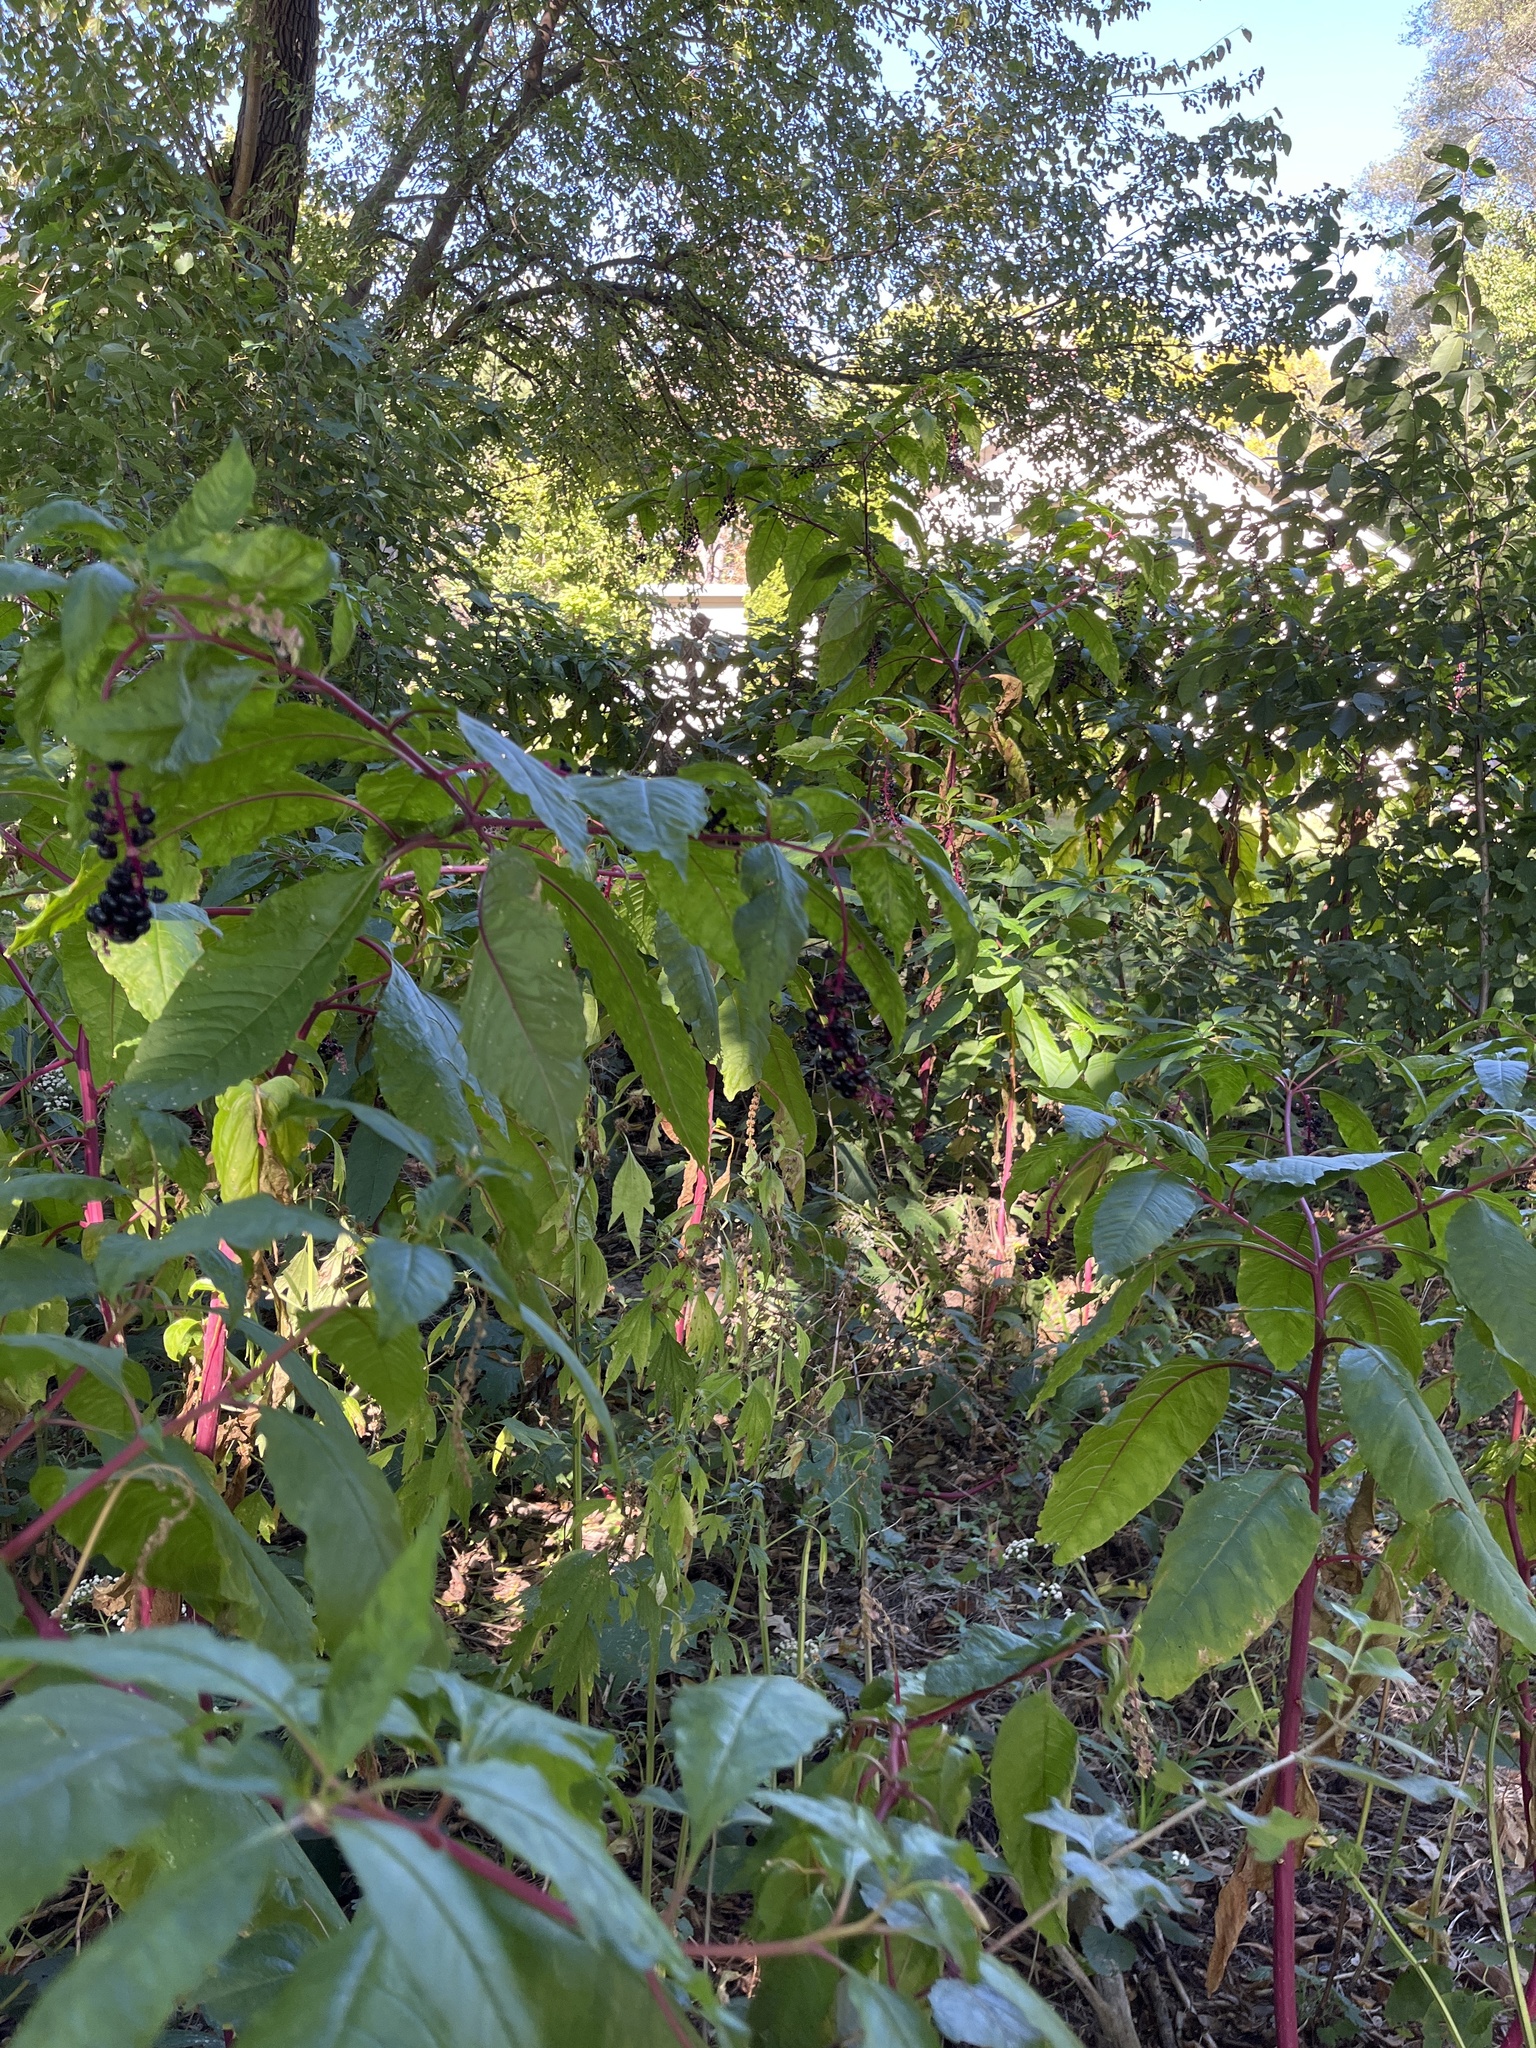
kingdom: Plantae
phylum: Tracheophyta
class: Magnoliopsida
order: Caryophyllales
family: Phytolaccaceae
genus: Phytolacca
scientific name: Phytolacca americana
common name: American pokeweed
